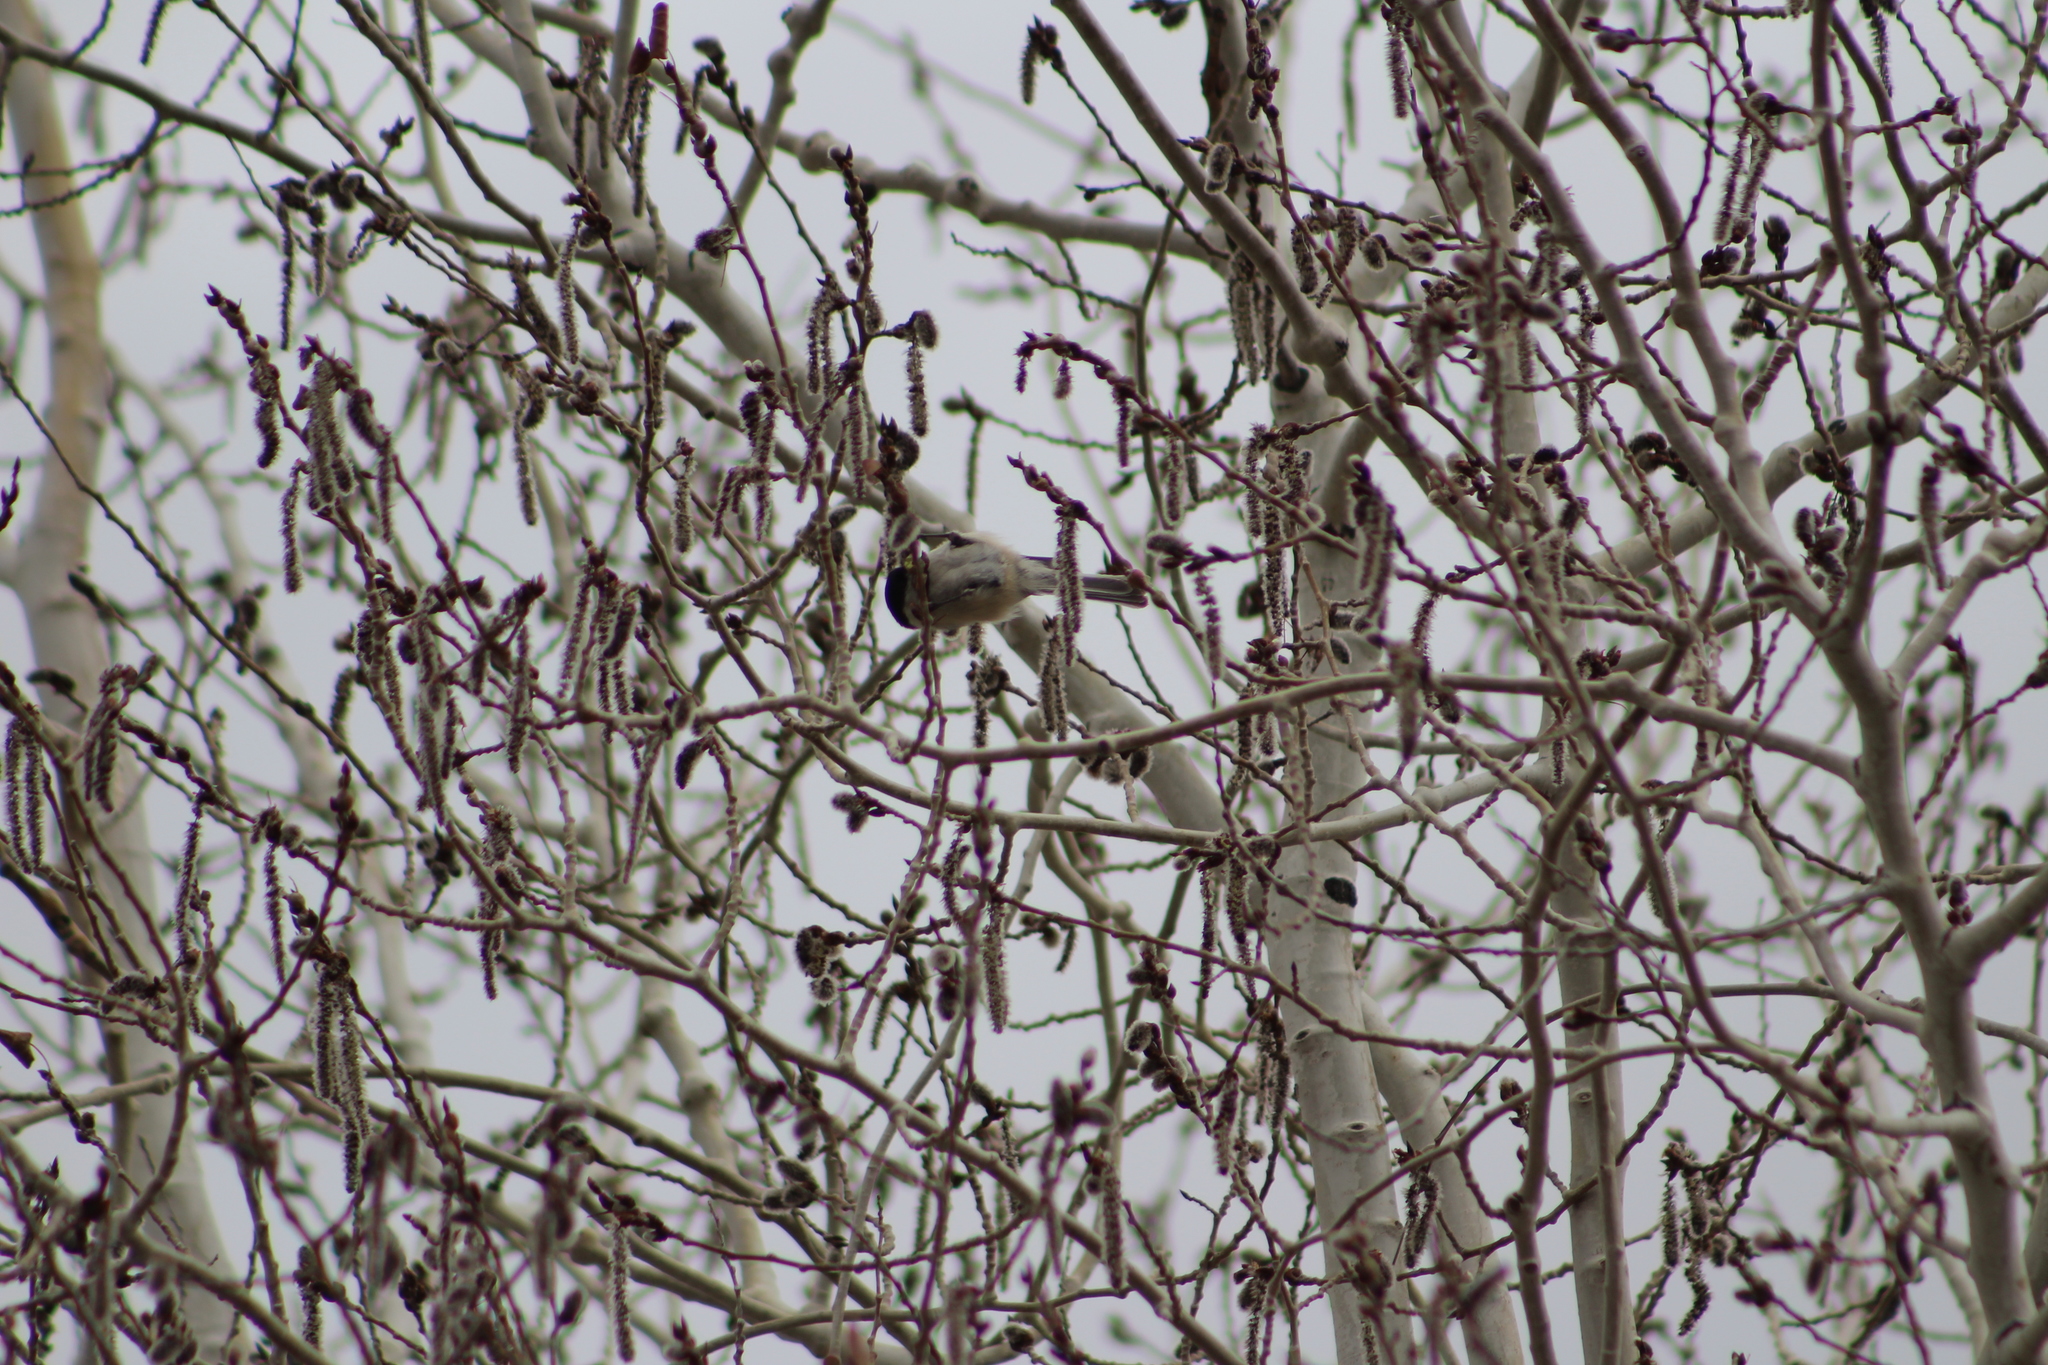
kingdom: Animalia
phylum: Chordata
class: Aves
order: Passeriformes
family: Paridae
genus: Poecile
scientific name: Poecile atricapillus
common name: Black-capped chickadee
